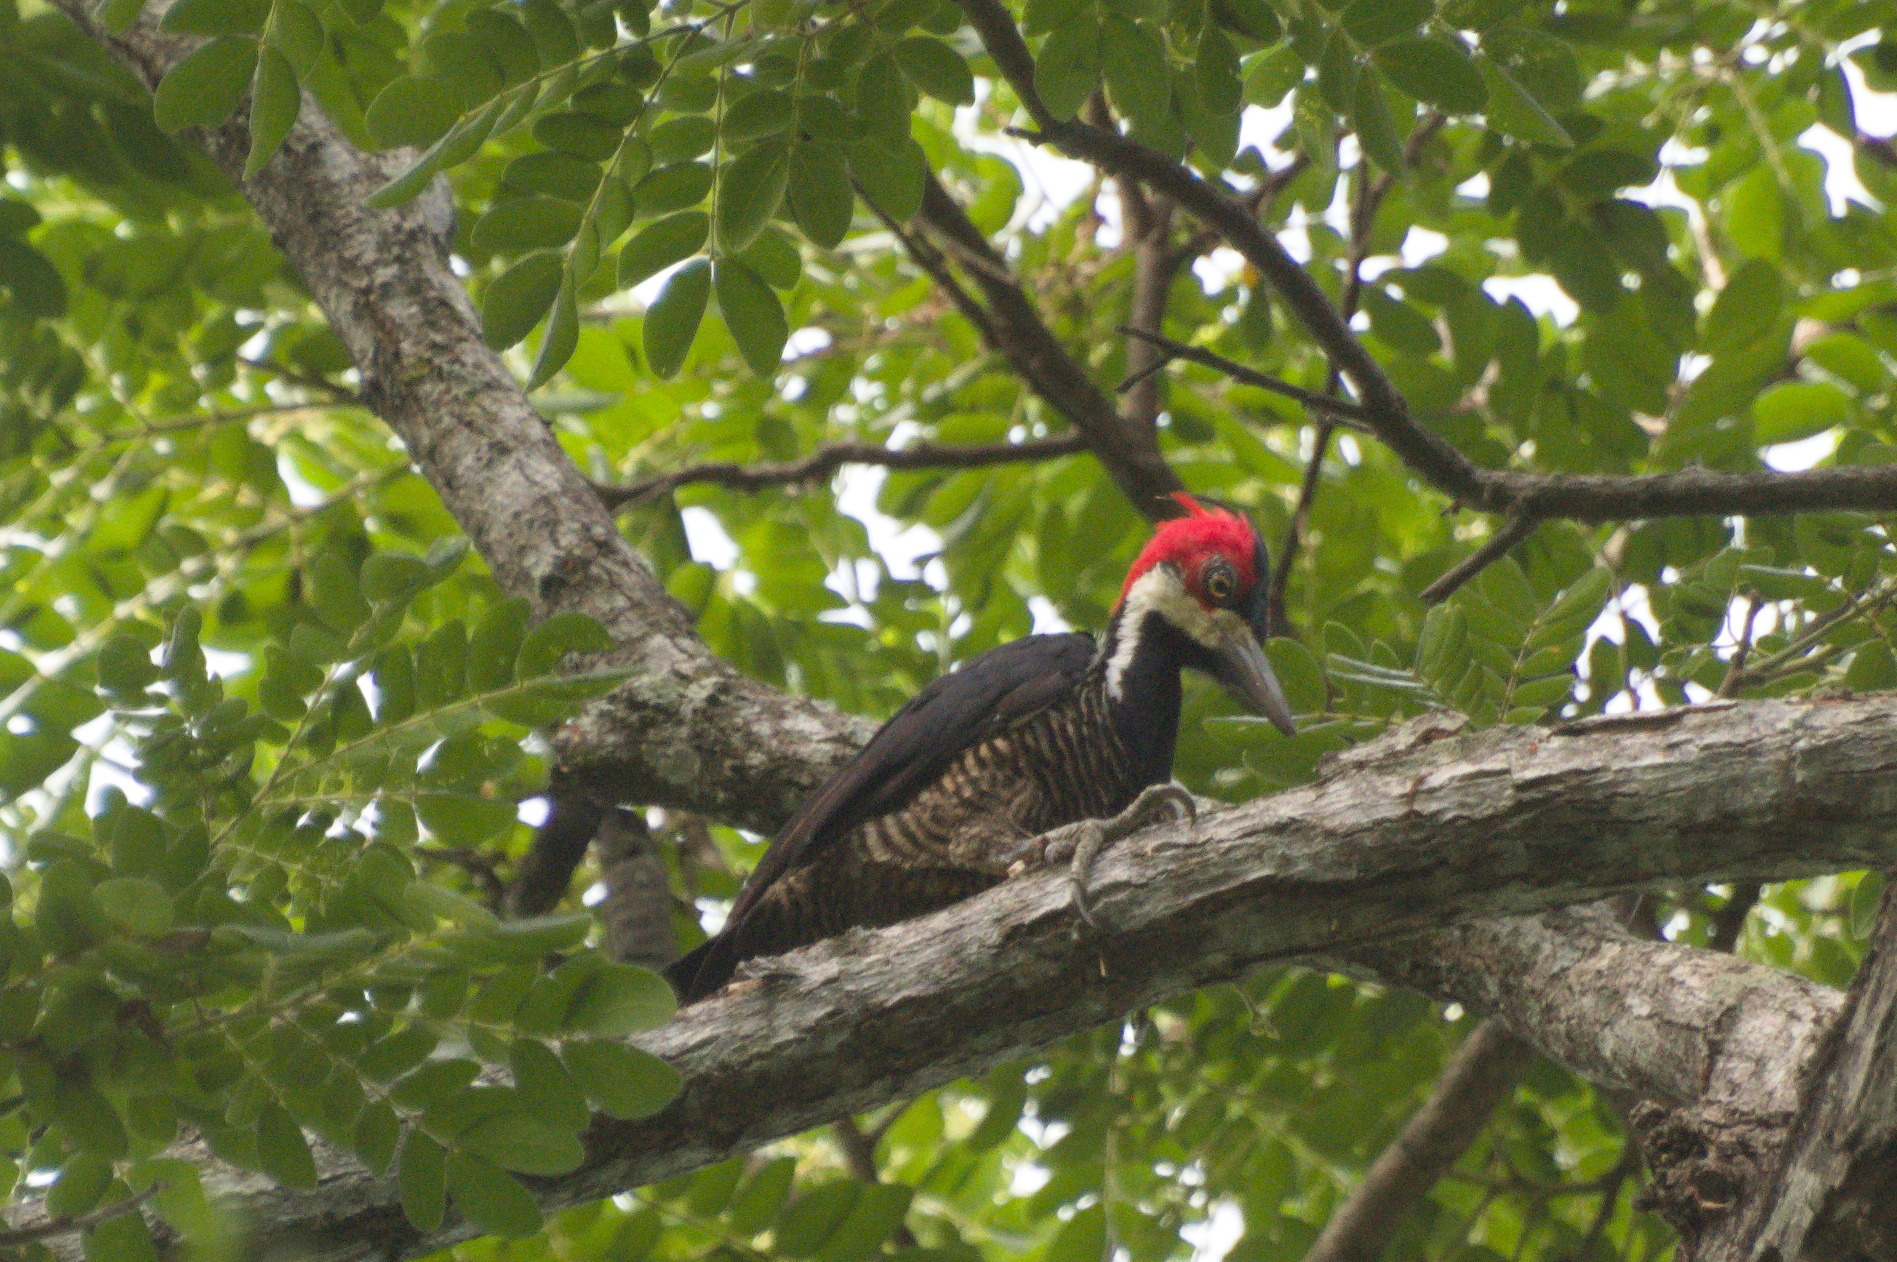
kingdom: Animalia
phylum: Chordata
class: Aves
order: Piciformes
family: Picidae
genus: Campephilus
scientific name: Campephilus melanoleucos
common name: Crimson-crested woodpecker
